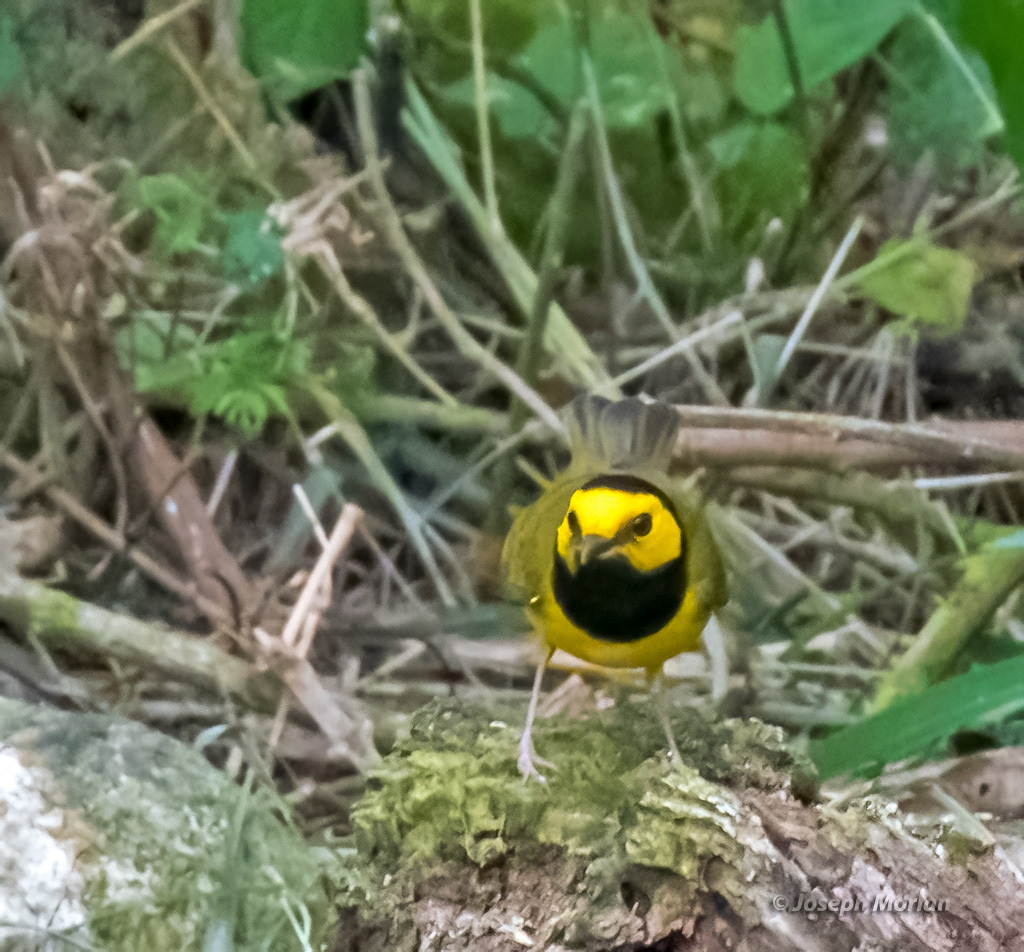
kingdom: Animalia
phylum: Chordata
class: Aves
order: Passeriformes
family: Parulidae
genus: Setophaga
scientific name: Setophaga citrina
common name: Hooded warbler
